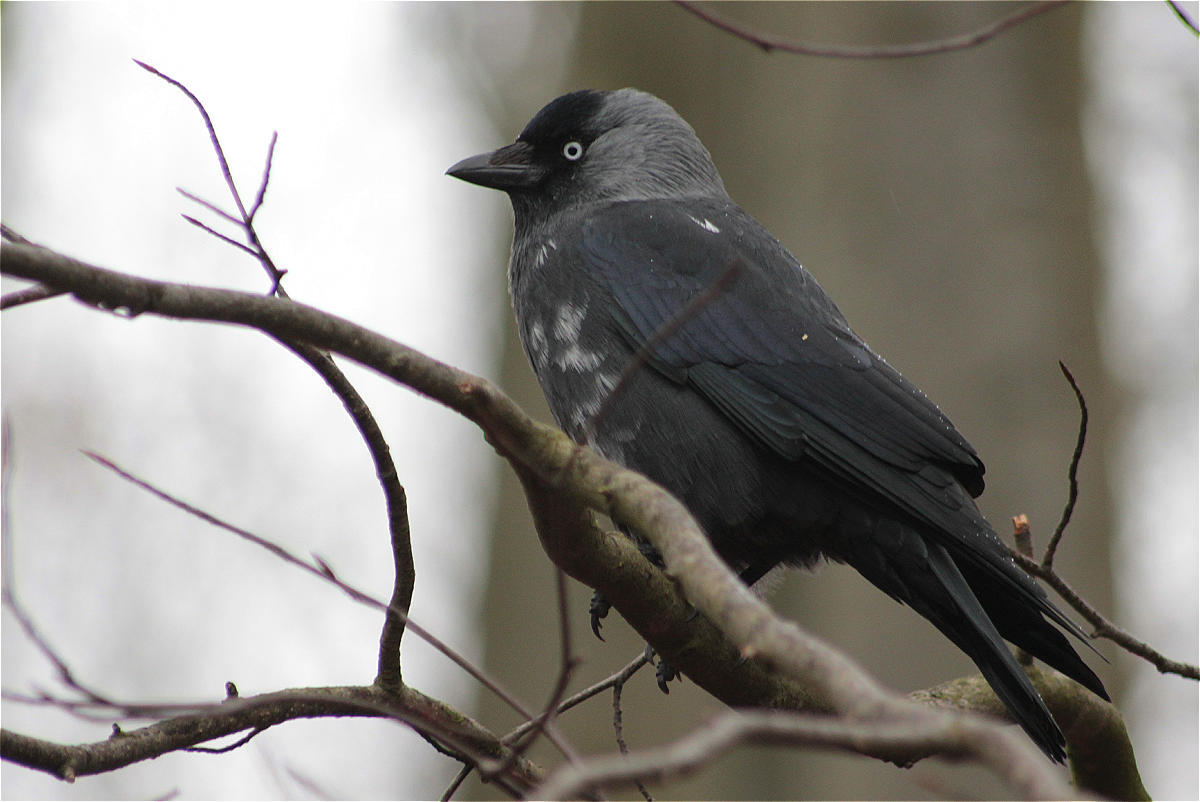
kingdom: Animalia
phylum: Chordata
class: Aves
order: Passeriformes
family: Corvidae
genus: Coloeus
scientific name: Coloeus monedula
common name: Western jackdaw
